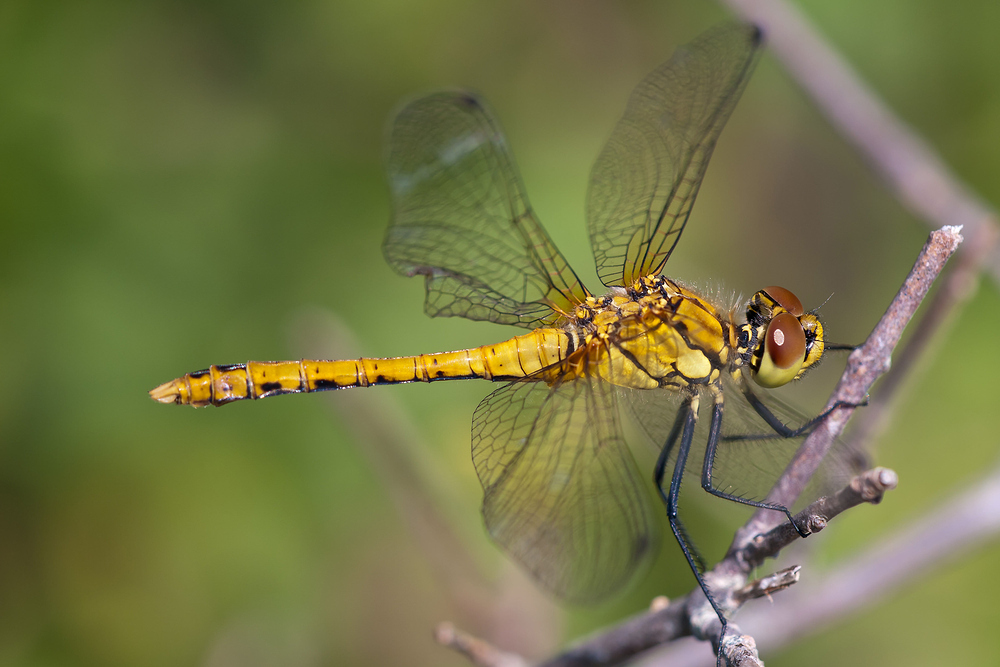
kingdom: Animalia
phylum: Arthropoda
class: Insecta
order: Odonata
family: Libellulidae
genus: Sympetrum
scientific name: Sympetrum sanguineum
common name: Ruddy darter
